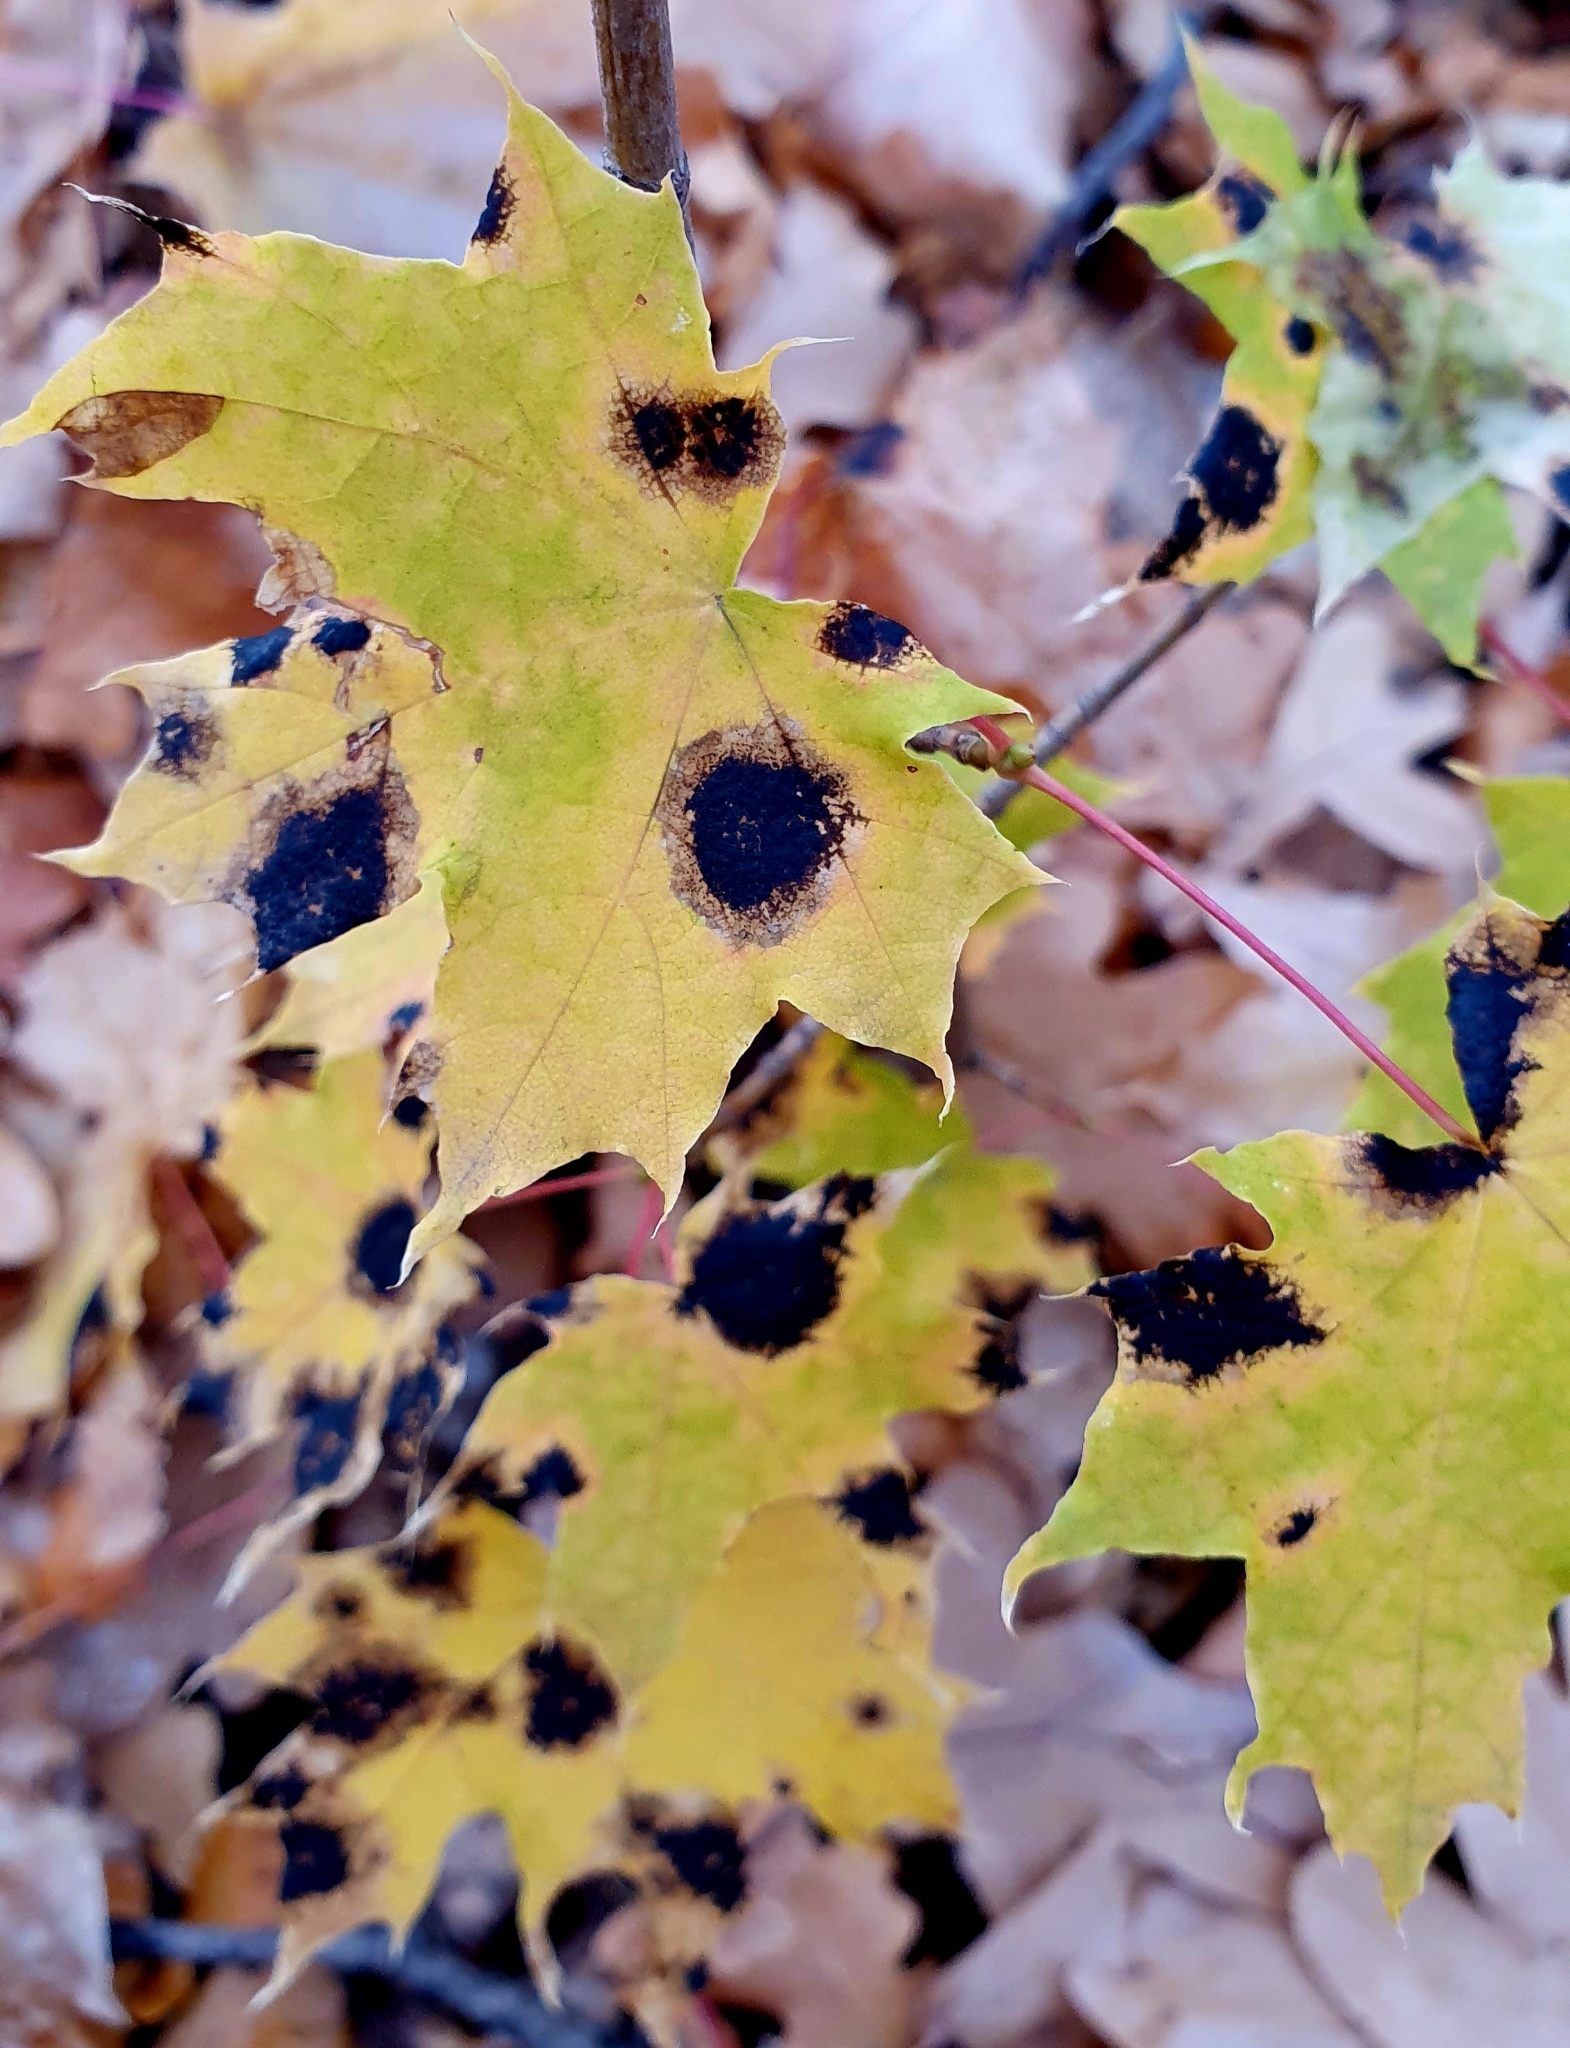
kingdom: Fungi
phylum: Ascomycota
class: Leotiomycetes
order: Rhytismatales
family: Rhytismataceae
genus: Rhytisma
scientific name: Rhytisma acerinum
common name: European tar spot
